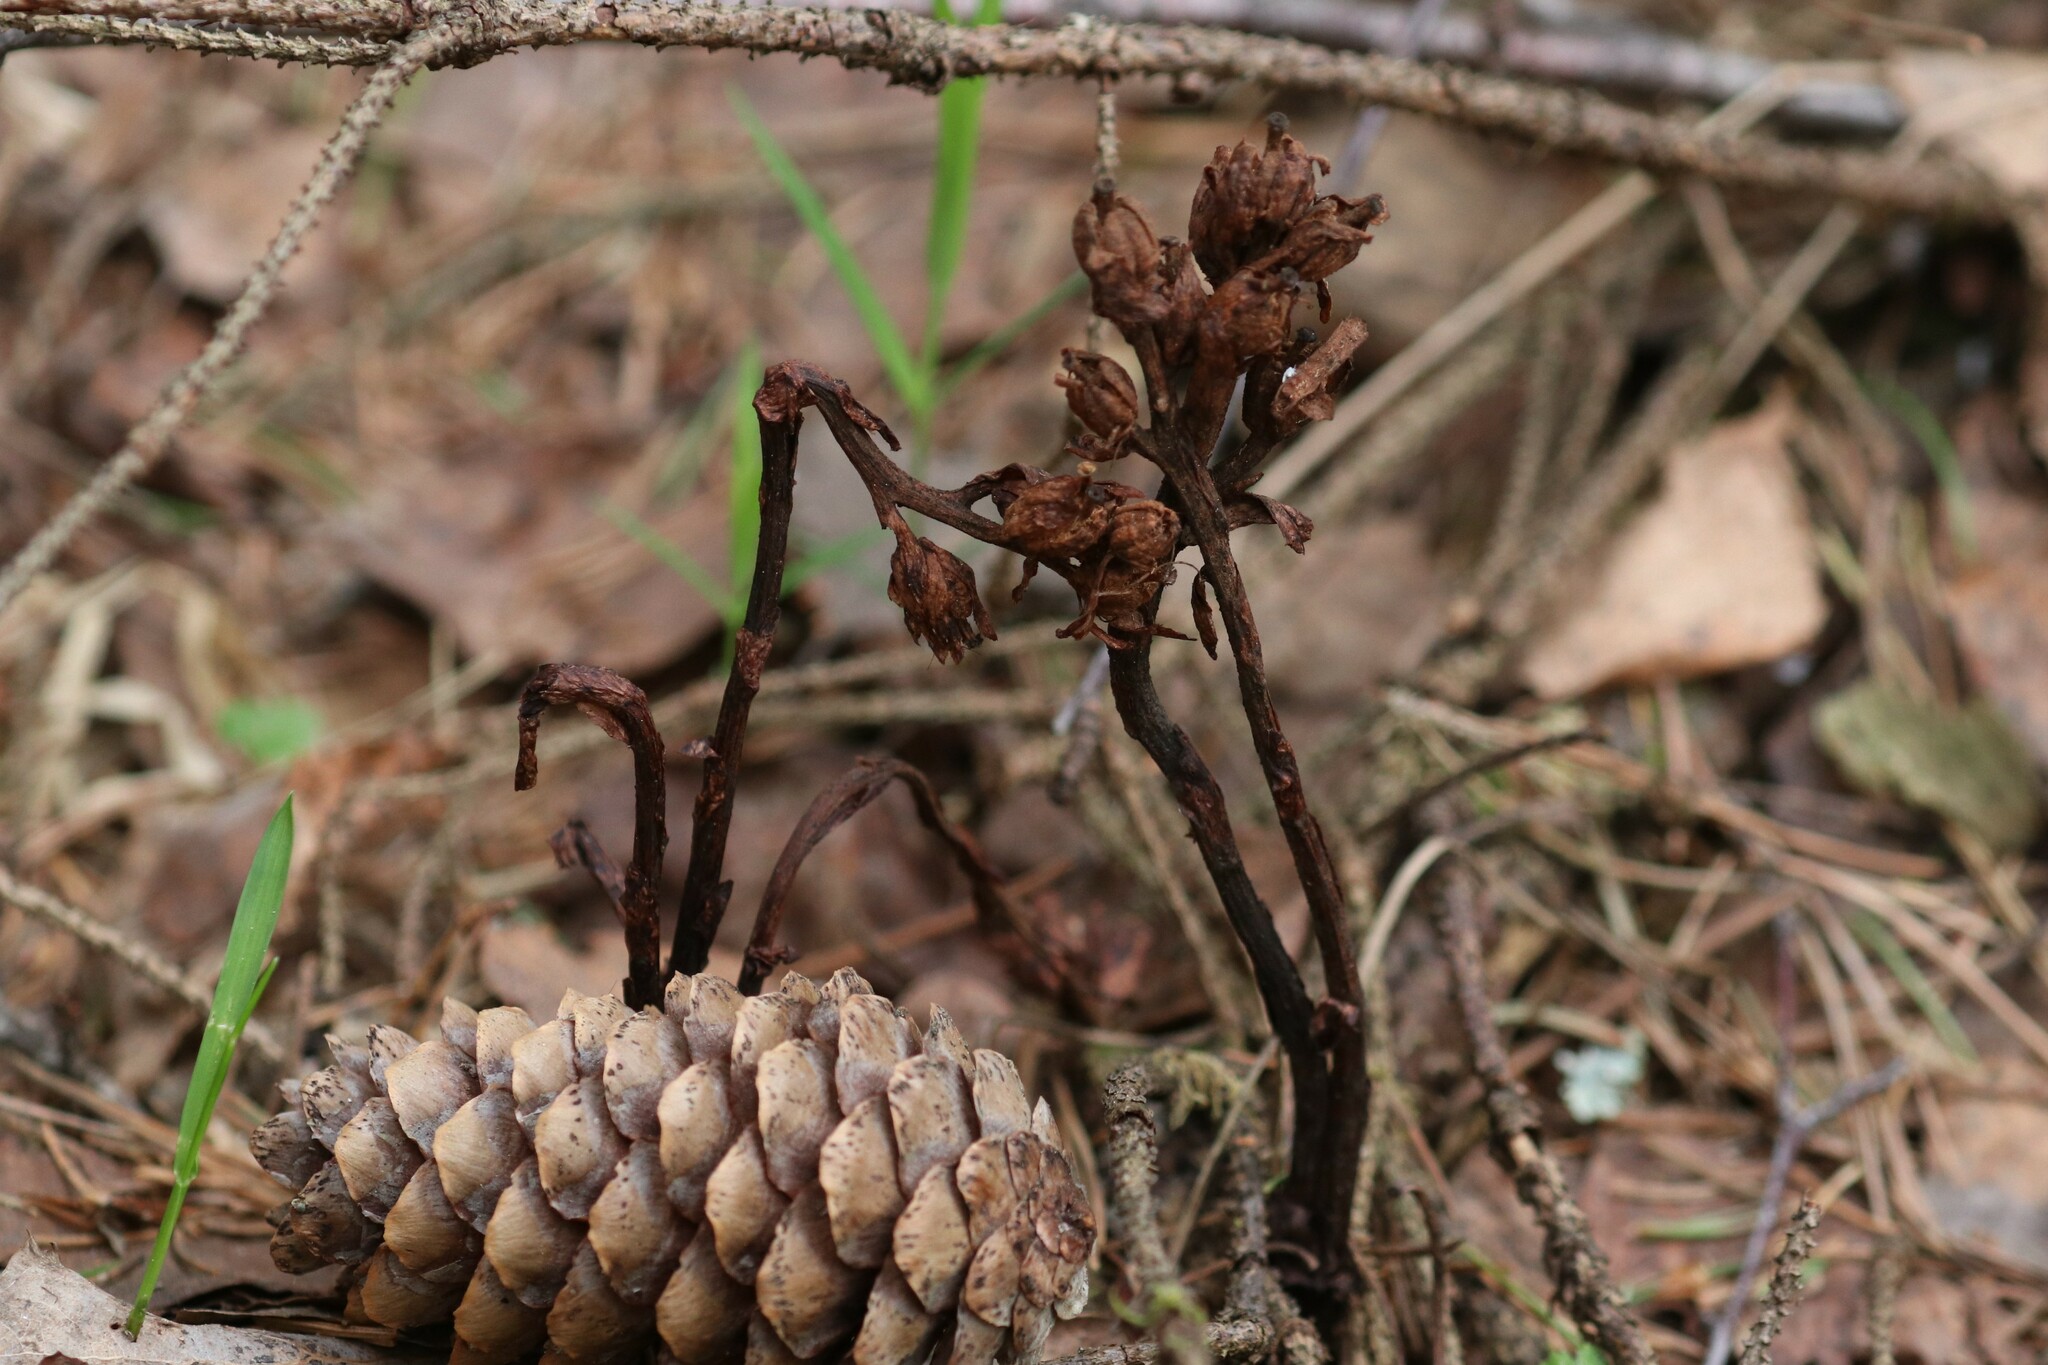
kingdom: Plantae
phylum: Tracheophyta
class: Magnoliopsida
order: Ericales
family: Ericaceae
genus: Hypopitys
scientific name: Hypopitys monotropa
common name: Yellow bird's-nest
